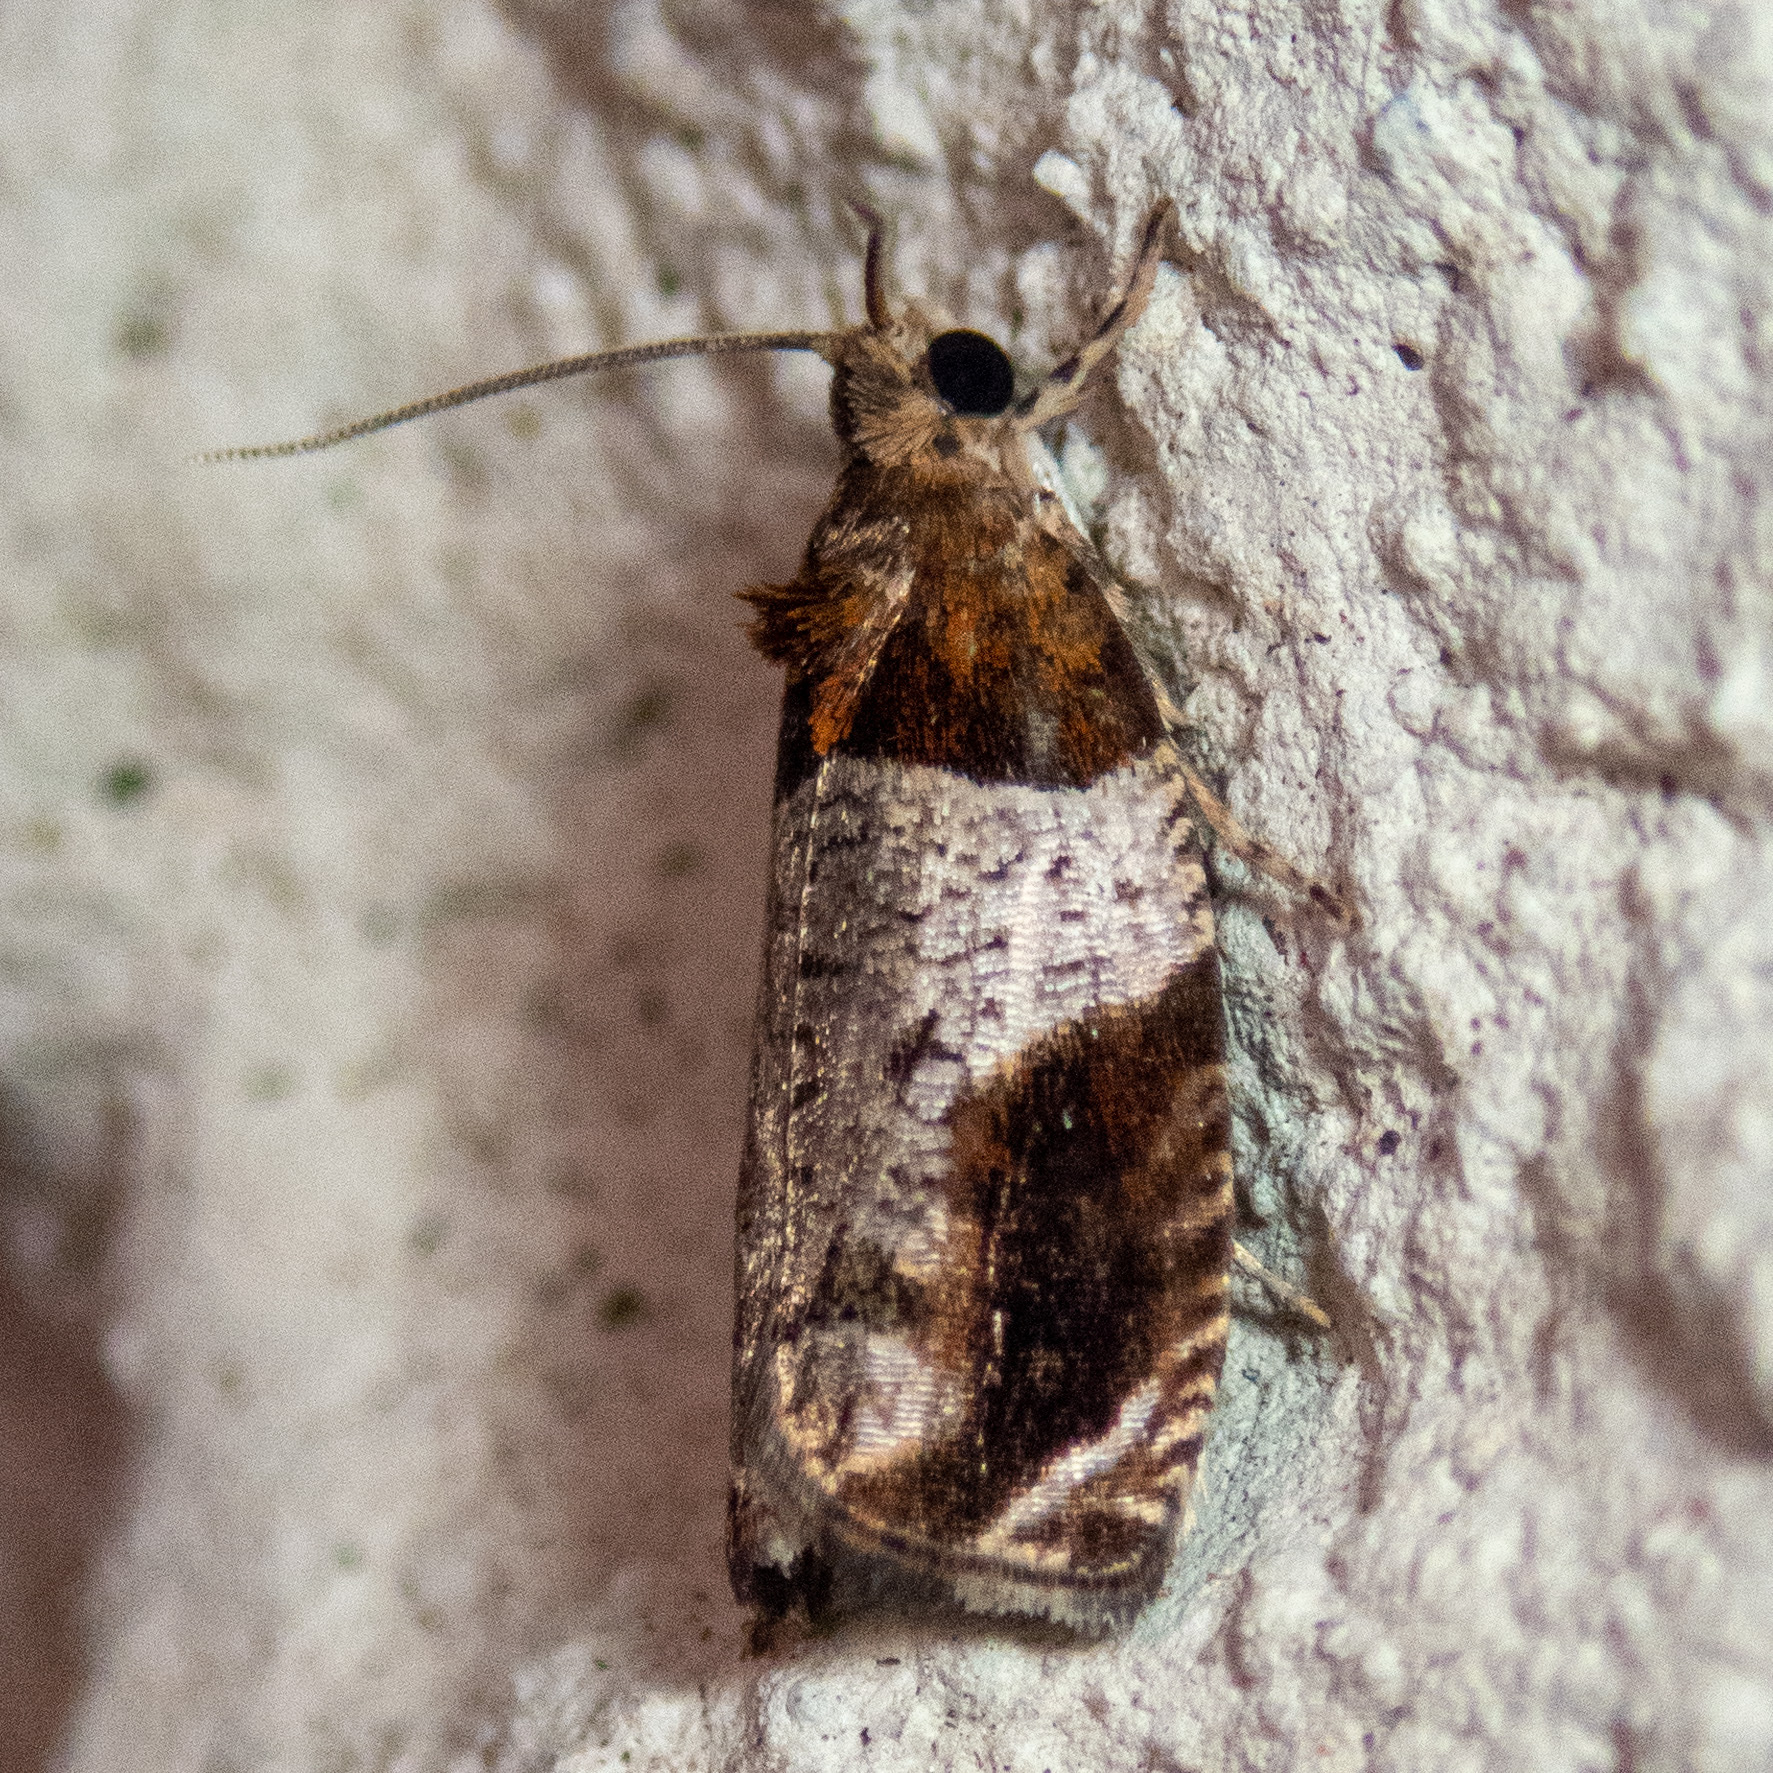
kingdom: Animalia
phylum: Arthropoda
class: Insecta
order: Lepidoptera
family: Tortricidae
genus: Olethreutes
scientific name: Olethreutes ferriferana
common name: Hydrangea leaftier moth
